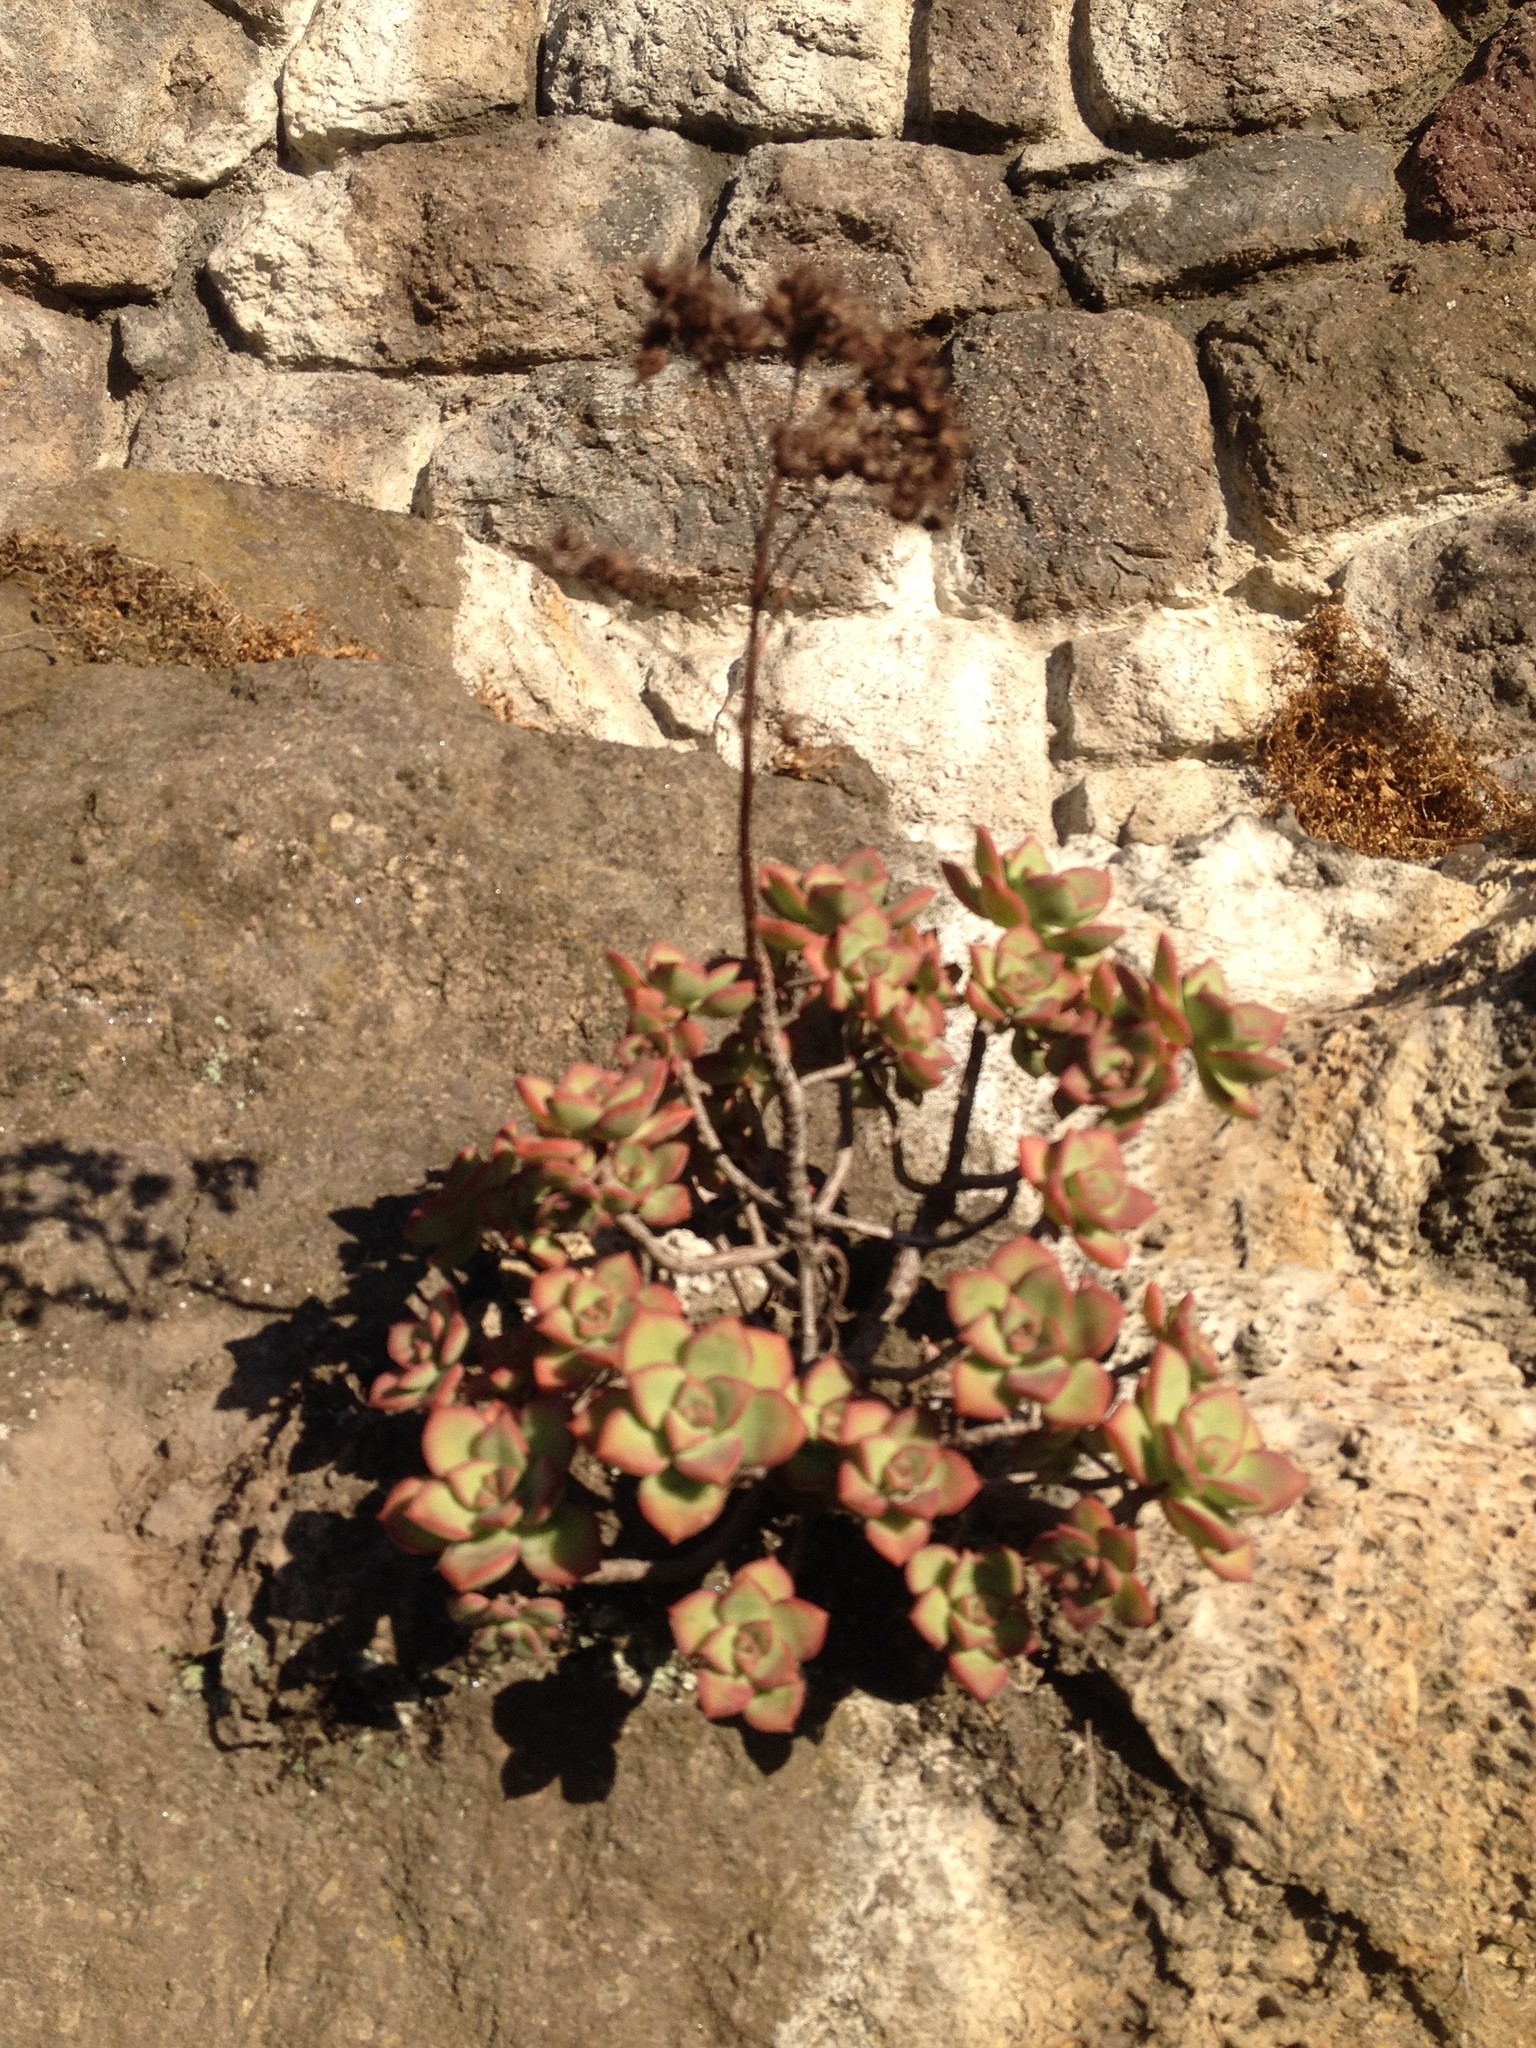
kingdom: Plantae
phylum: Tracheophyta
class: Magnoliopsida
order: Saxifragales
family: Crassulaceae
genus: Aeonium
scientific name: Aeonium haworthii
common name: Haworth's aeonium
